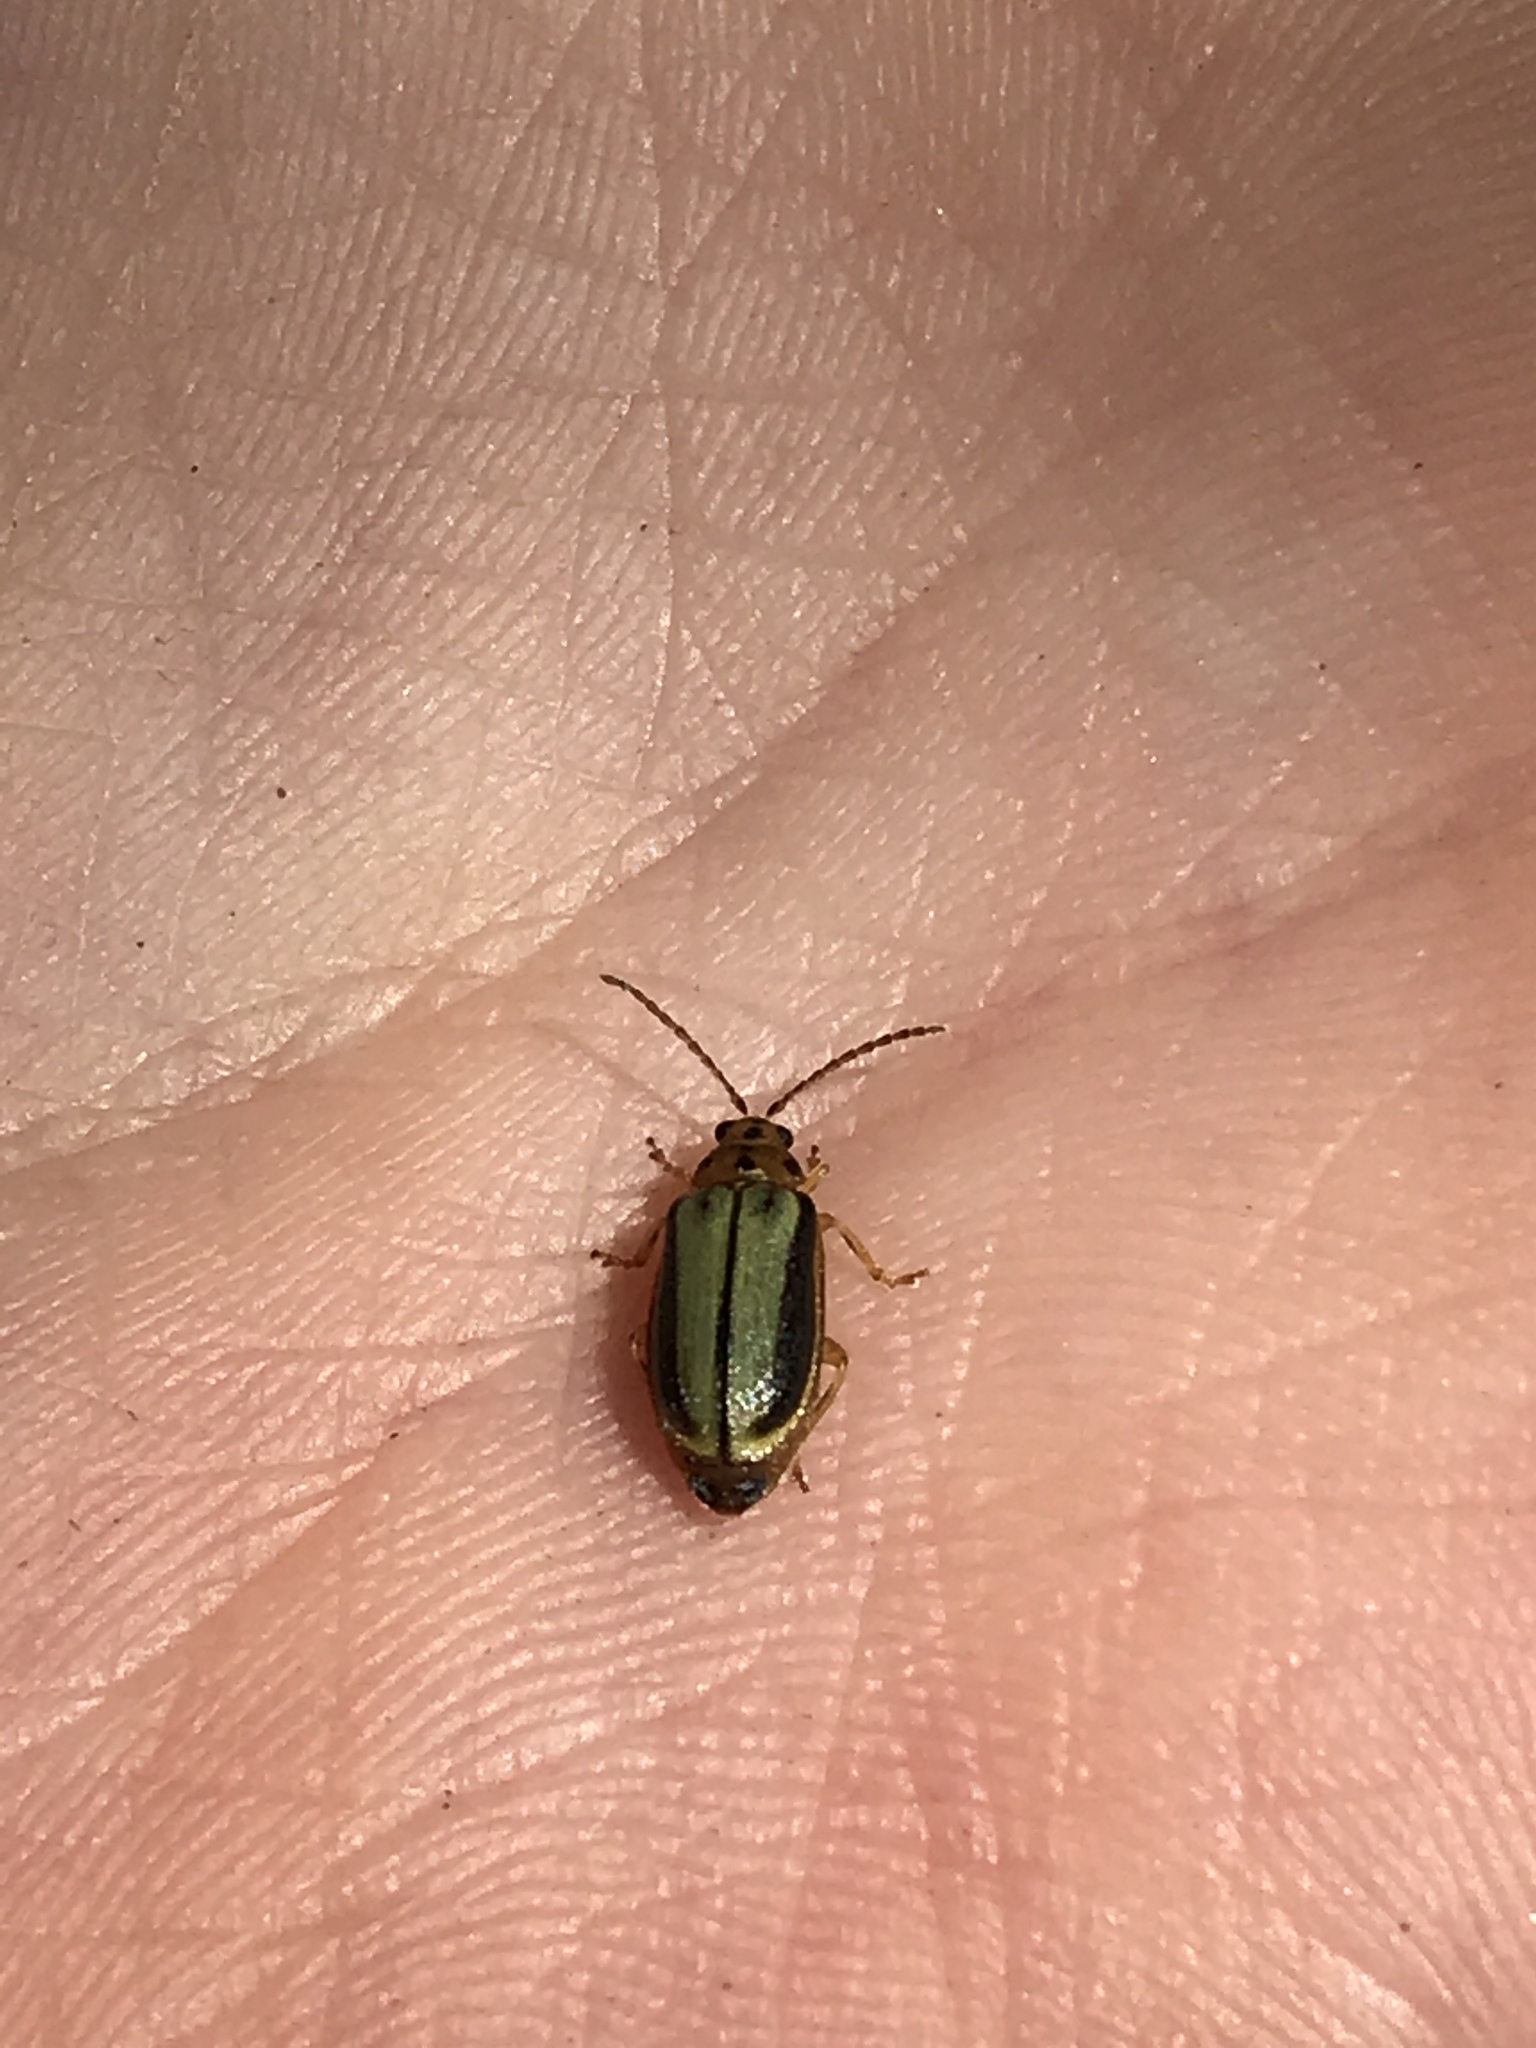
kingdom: Animalia
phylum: Arthropoda
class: Insecta
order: Coleoptera
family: Chrysomelidae
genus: Xanthogaleruca
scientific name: Xanthogaleruca luteola
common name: Elm leaf beetle
